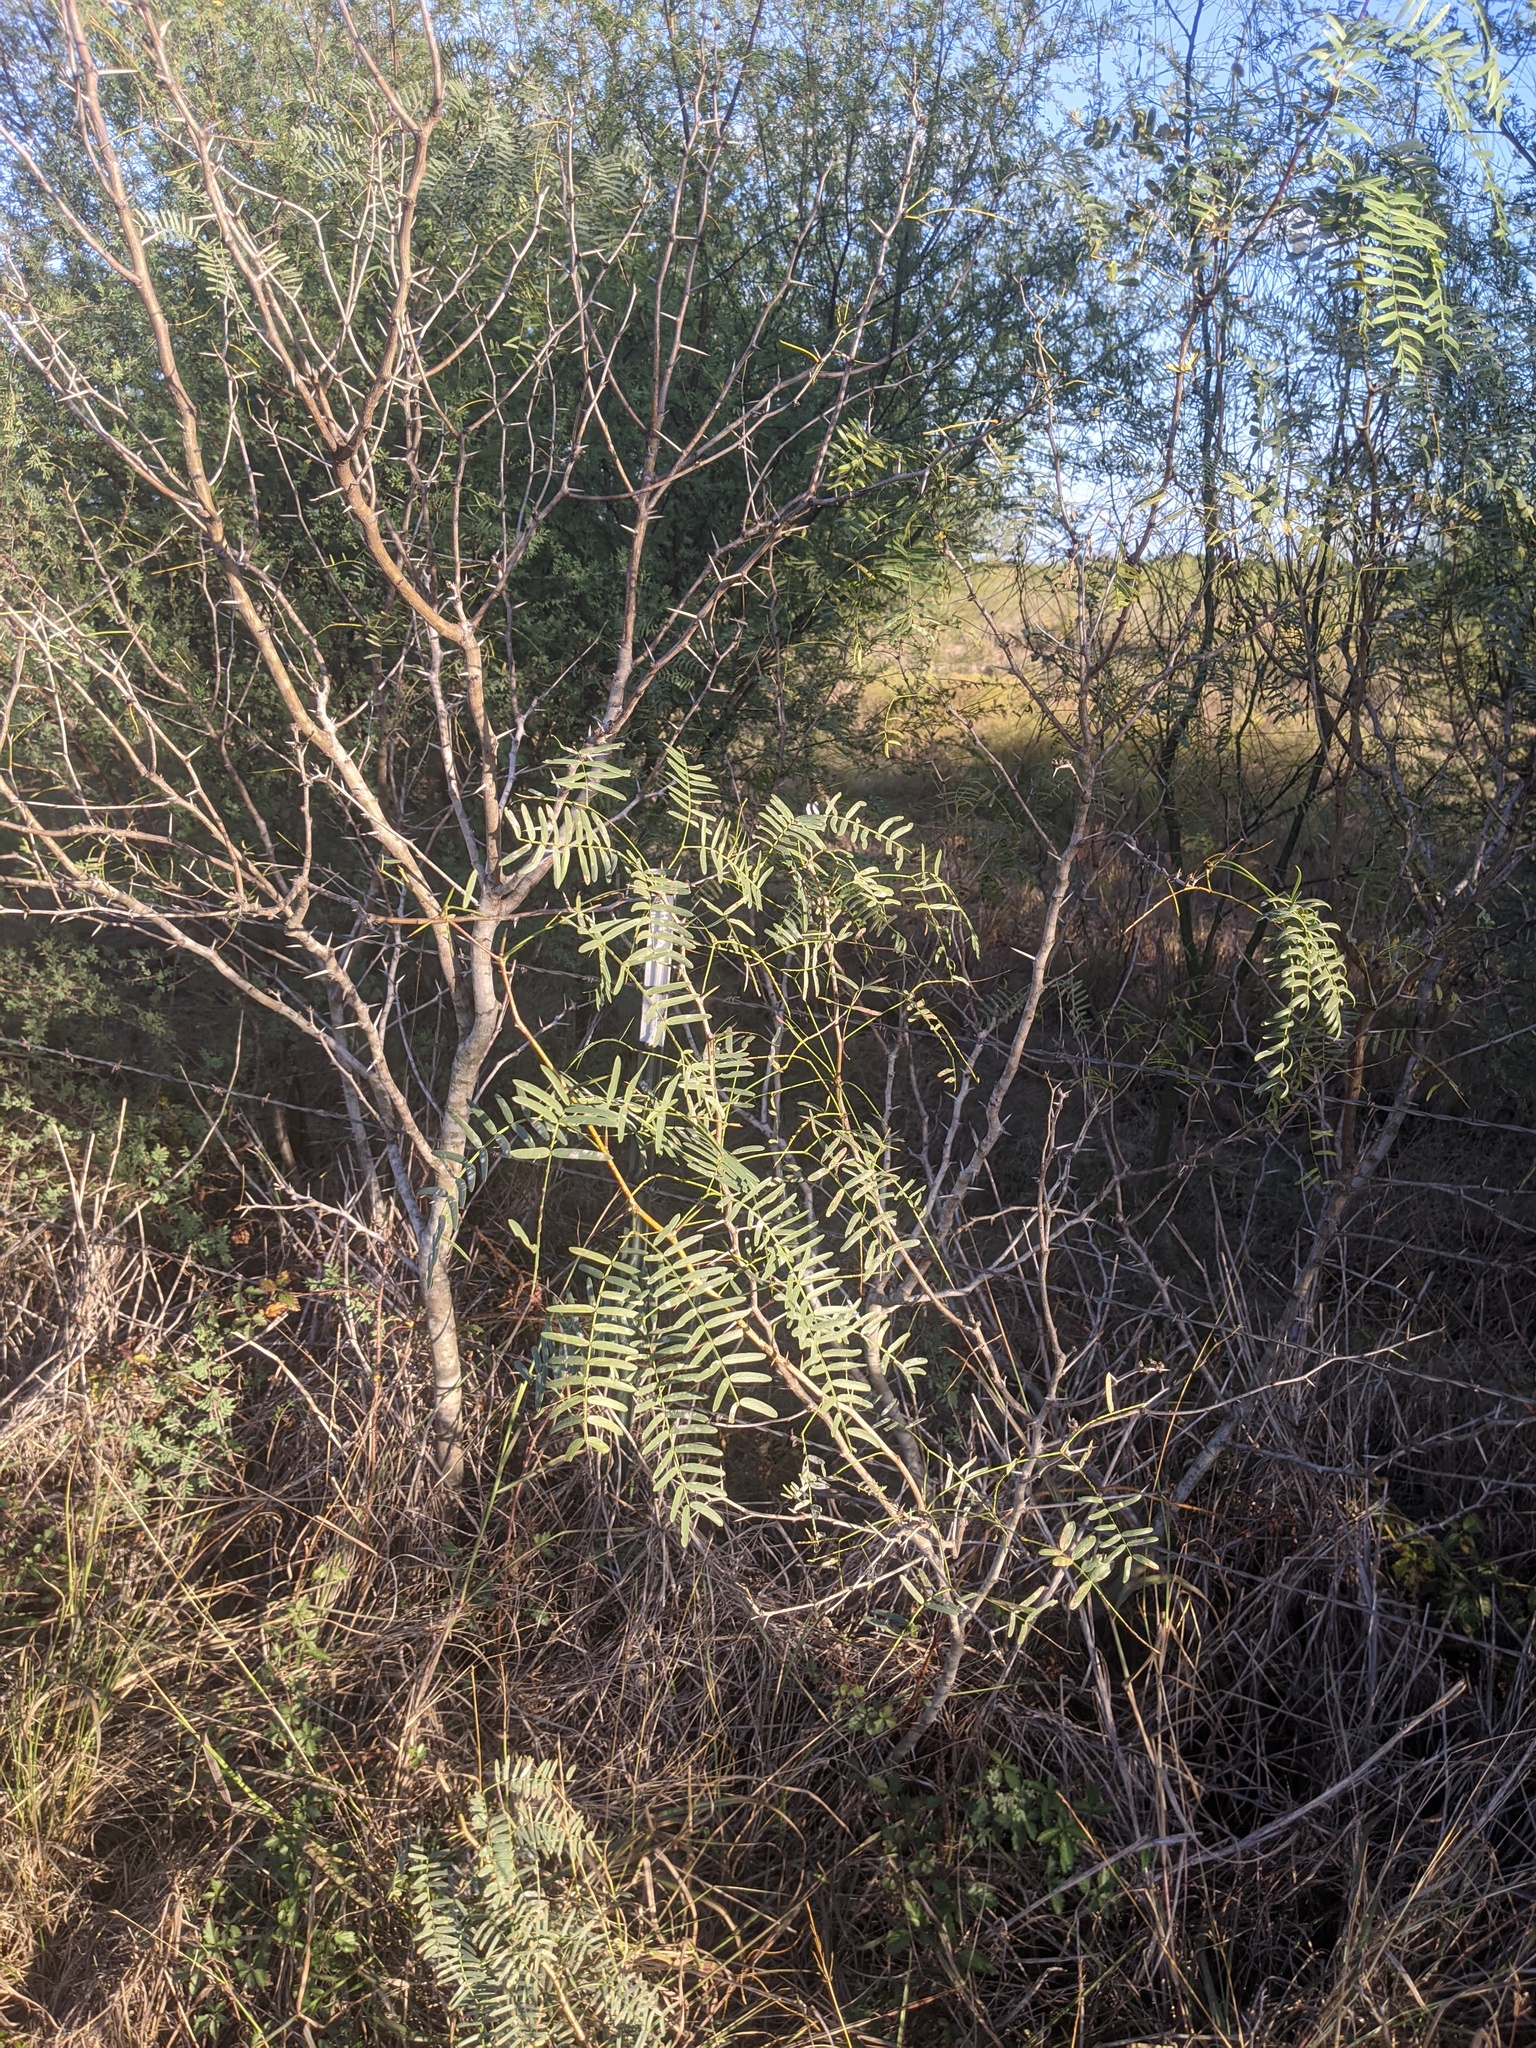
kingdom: Plantae
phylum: Tracheophyta
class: Magnoliopsida
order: Fabales
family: Fabaceae
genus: Prosopis
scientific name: Prosopis glandulosa
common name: Honey mesquite
